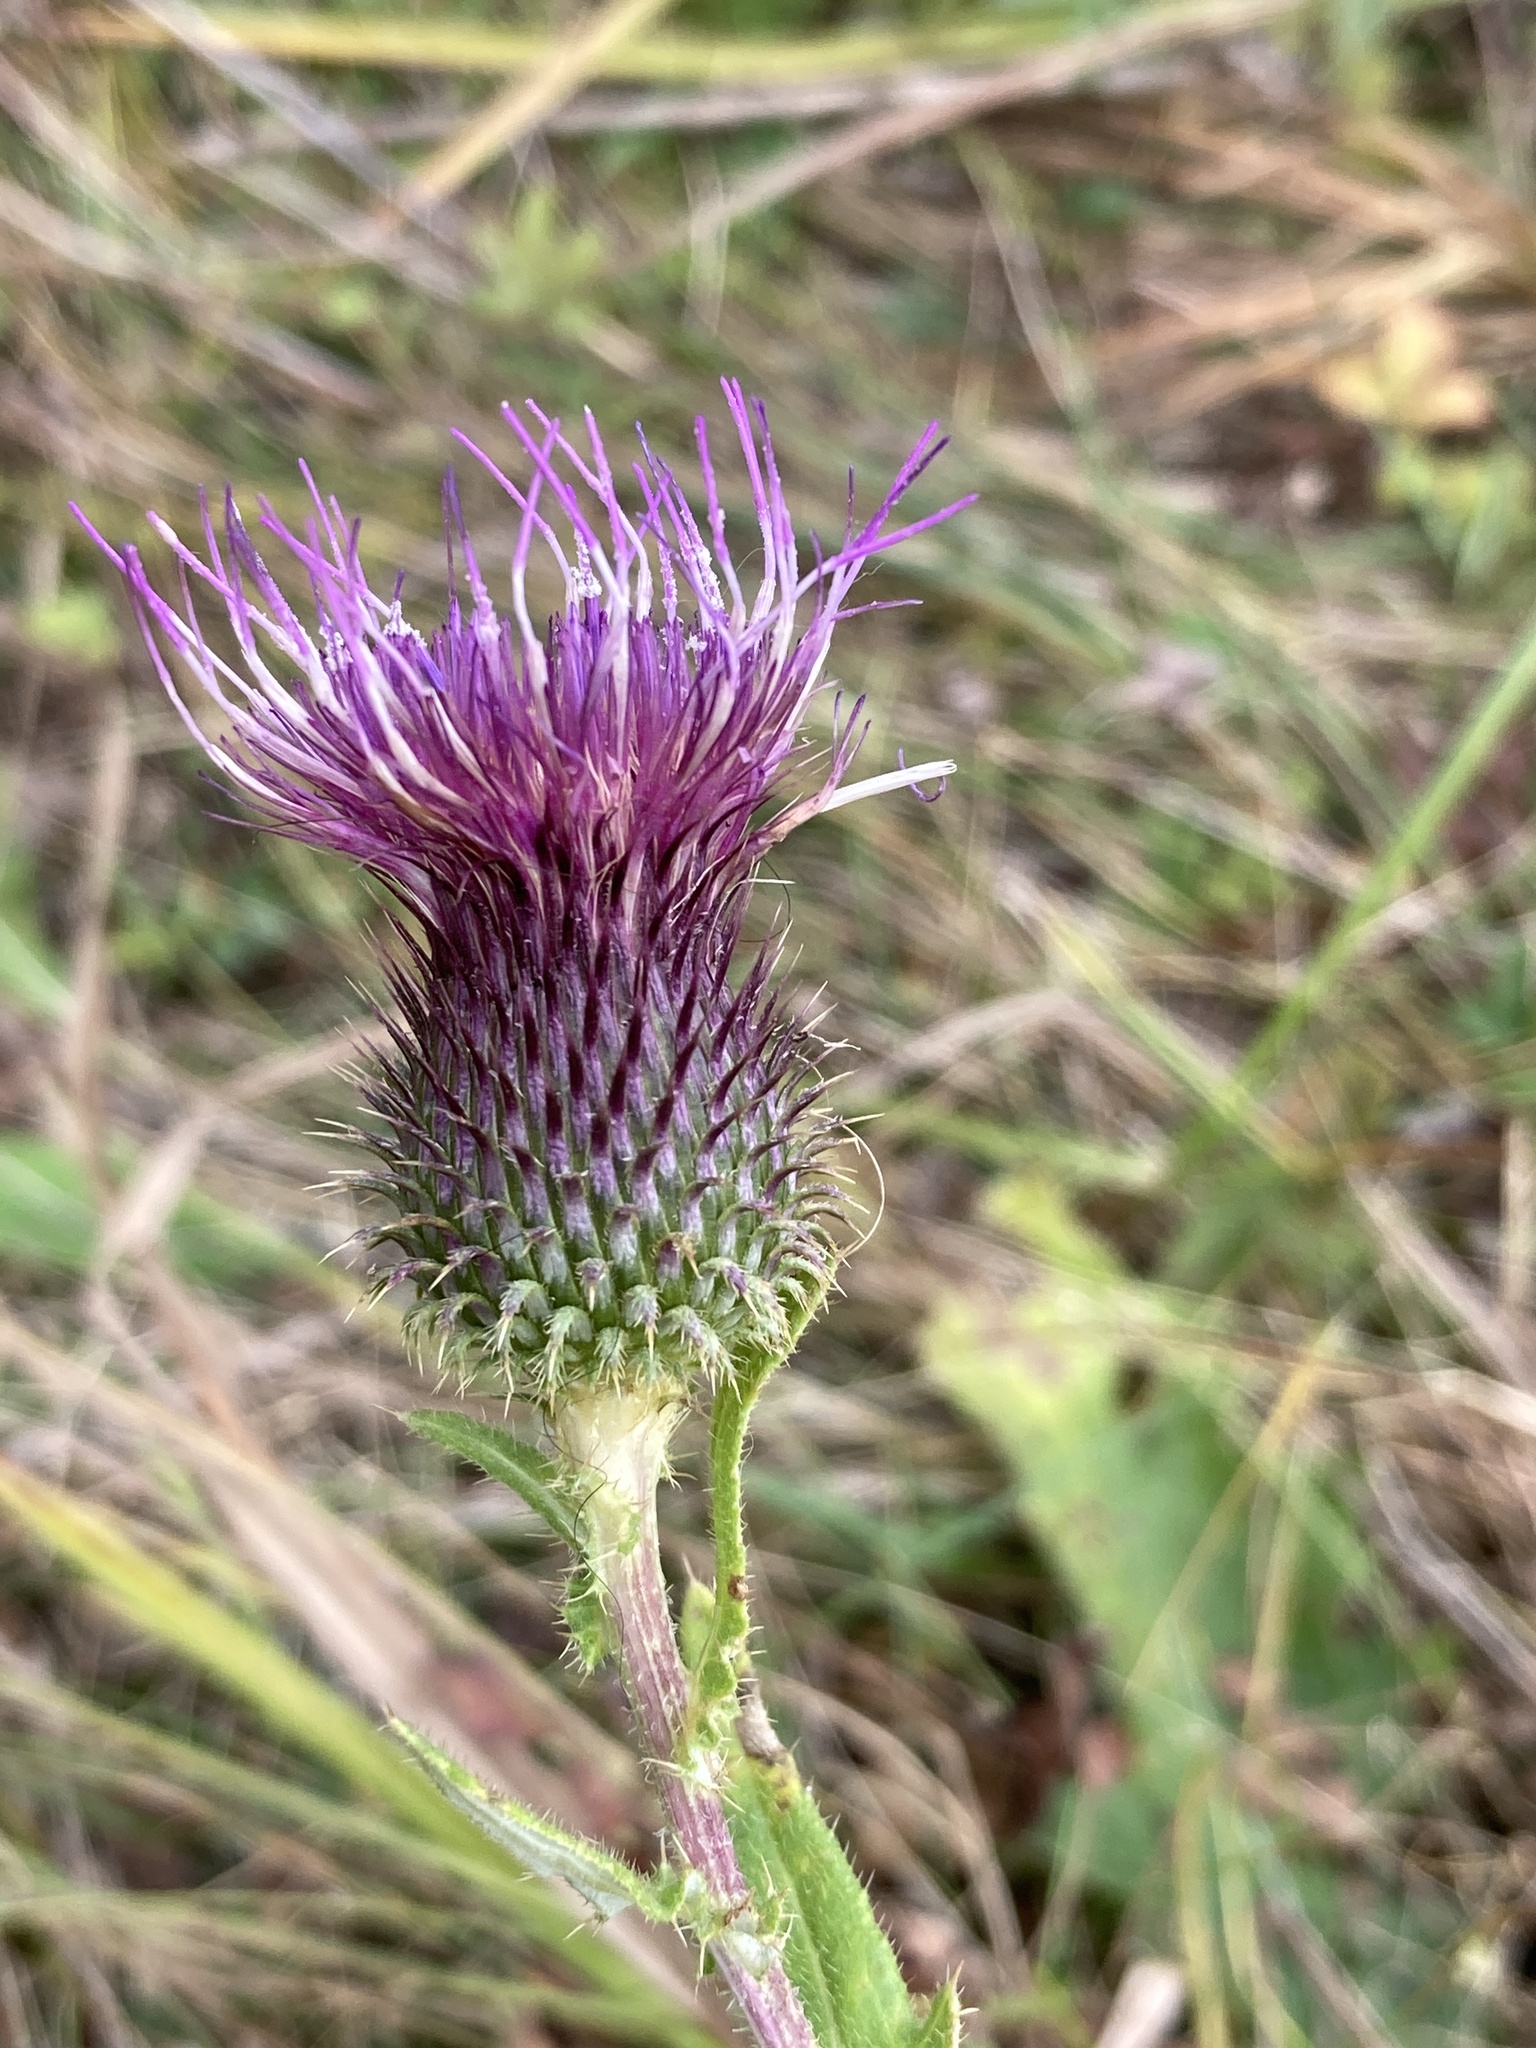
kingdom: Plantae
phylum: Tracheophyta
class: Magnoliopsida
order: Asterales
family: Asteraceae
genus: Lophiolepis
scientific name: Lophiolepis ciliata
